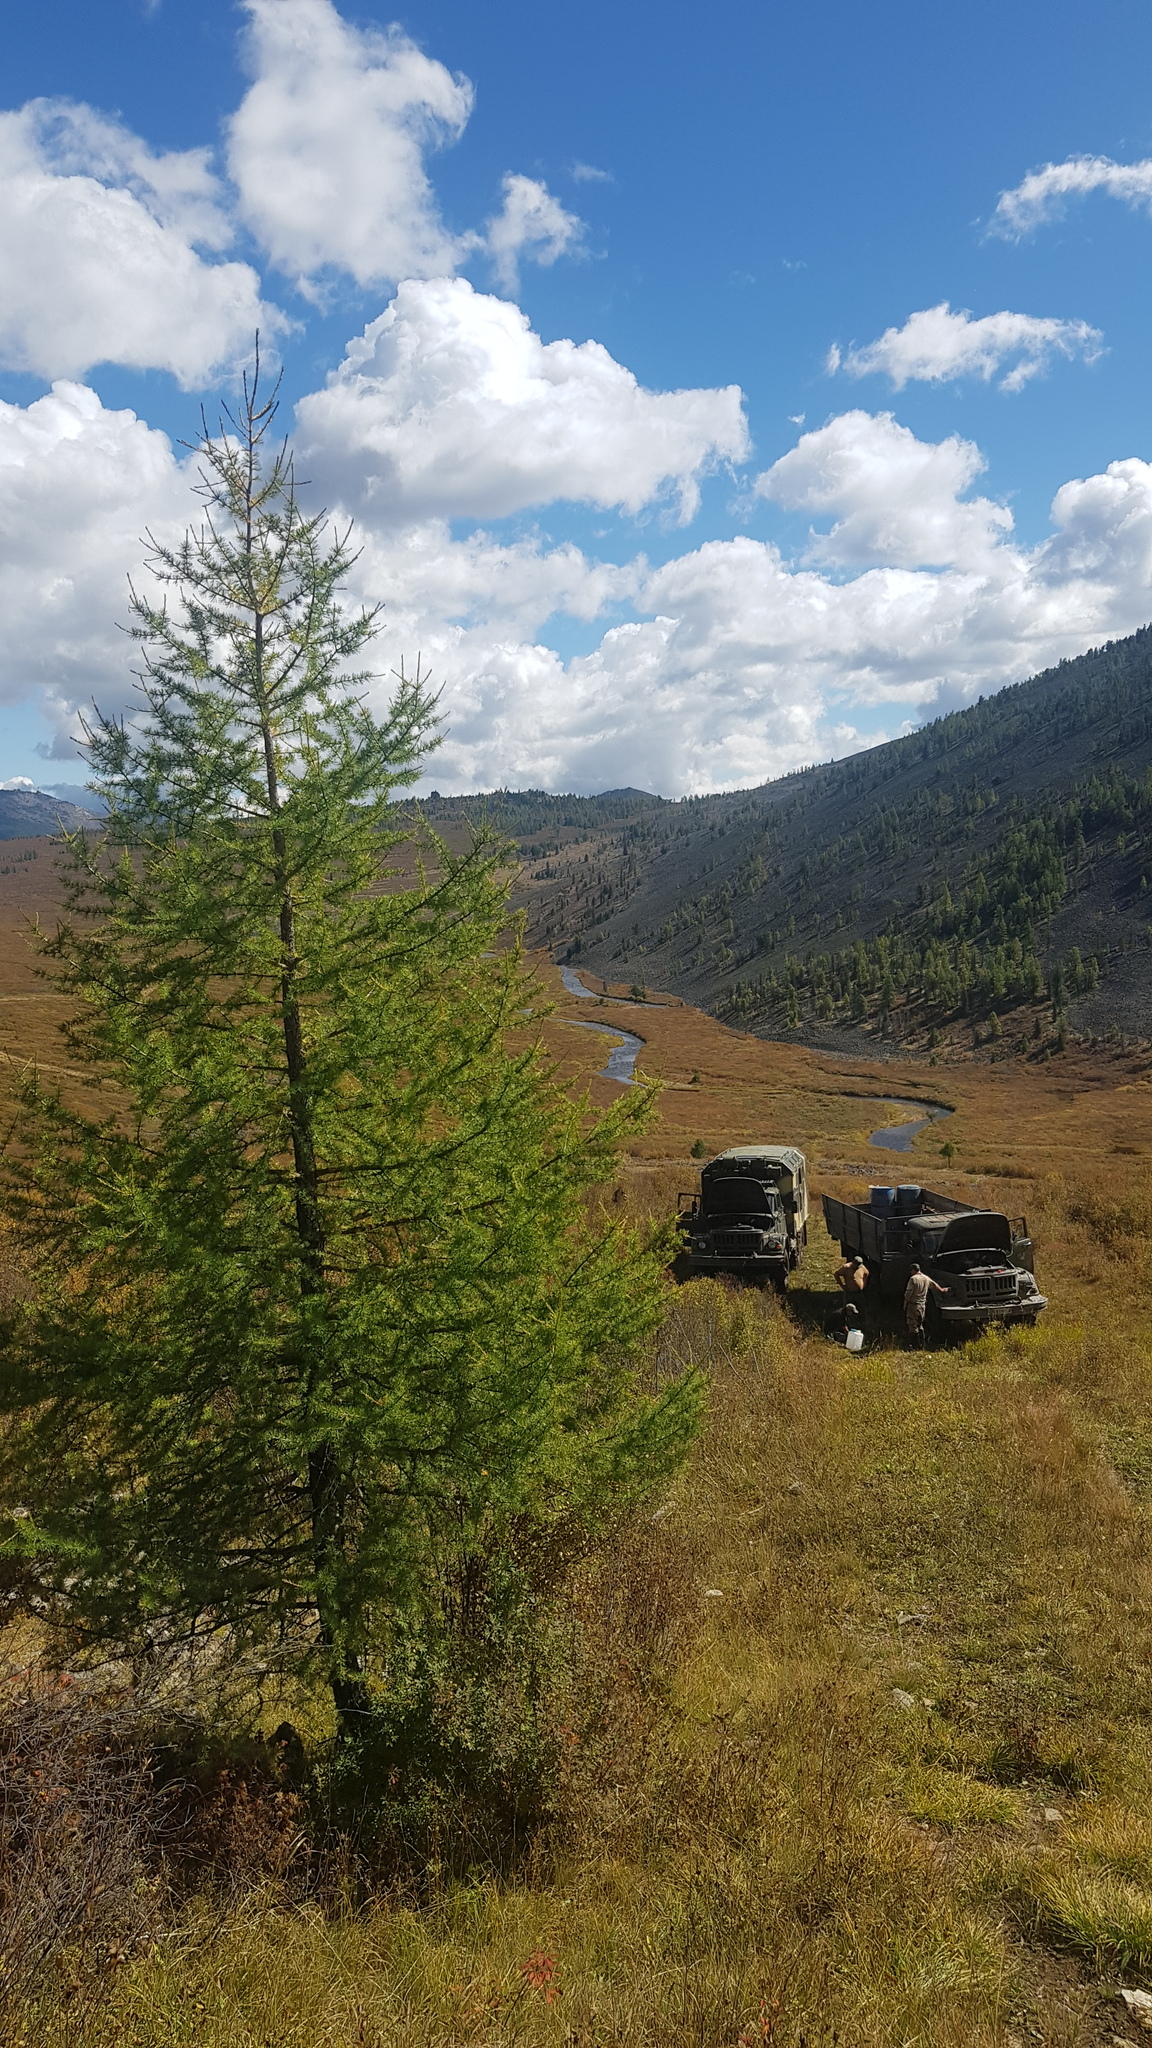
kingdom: Plantae
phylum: Tracheophyta
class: Pinopsida
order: Pinales
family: Pinaceae
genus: Larix
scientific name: Larix sibirica
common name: Siberian larch
